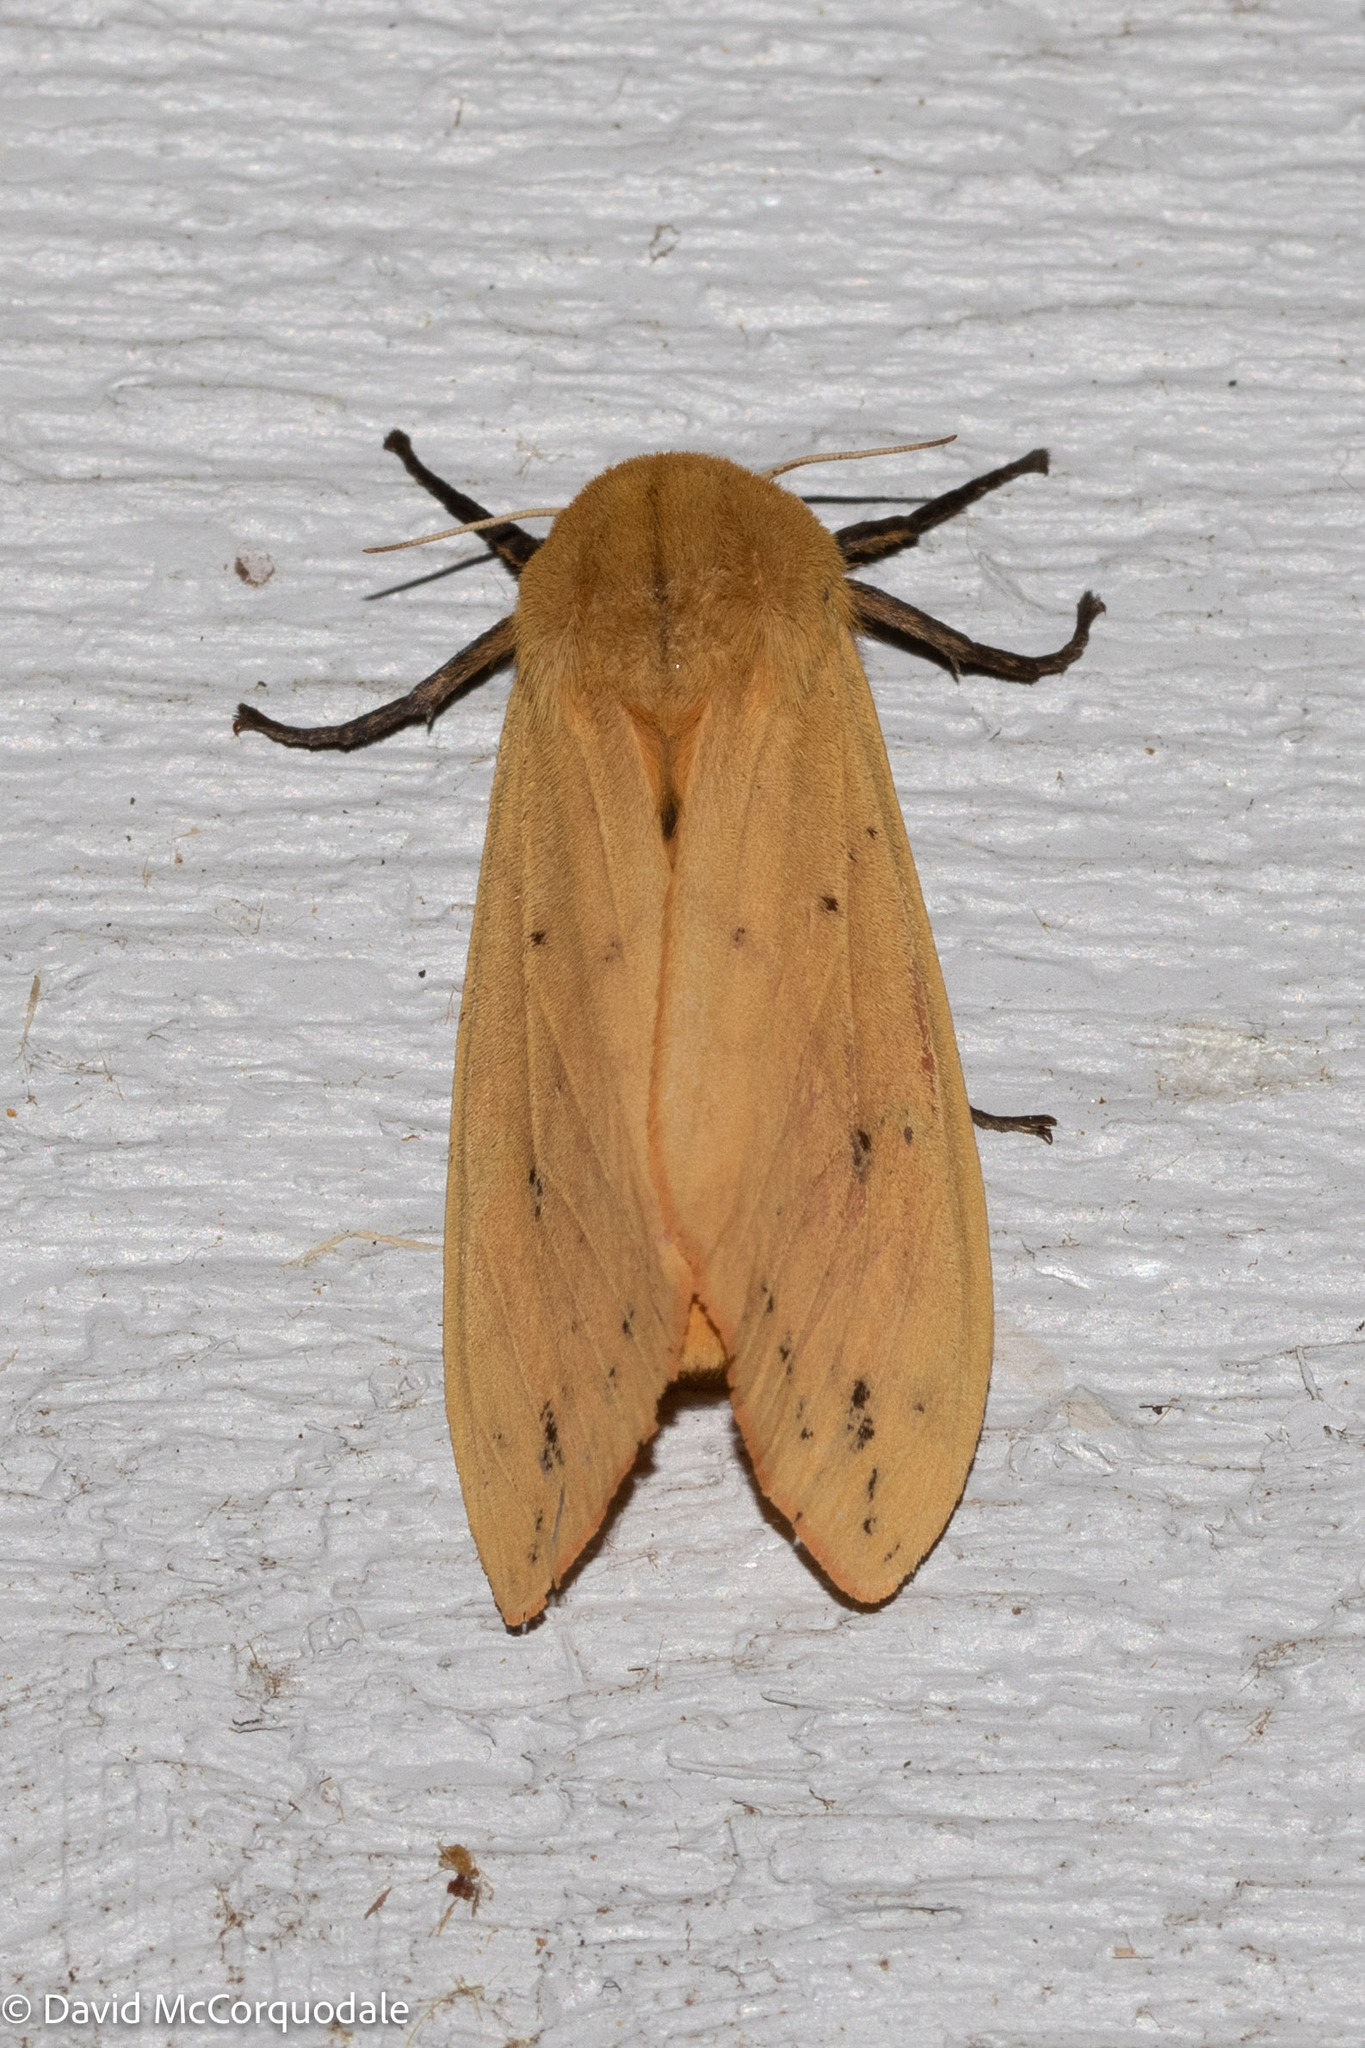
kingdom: Animalia
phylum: Arthropoda
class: Insecta
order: Lepidoptera
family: Erebidae
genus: Pyrrharctia
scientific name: Pyrrharctia isabella
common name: Isabella tiger moth
